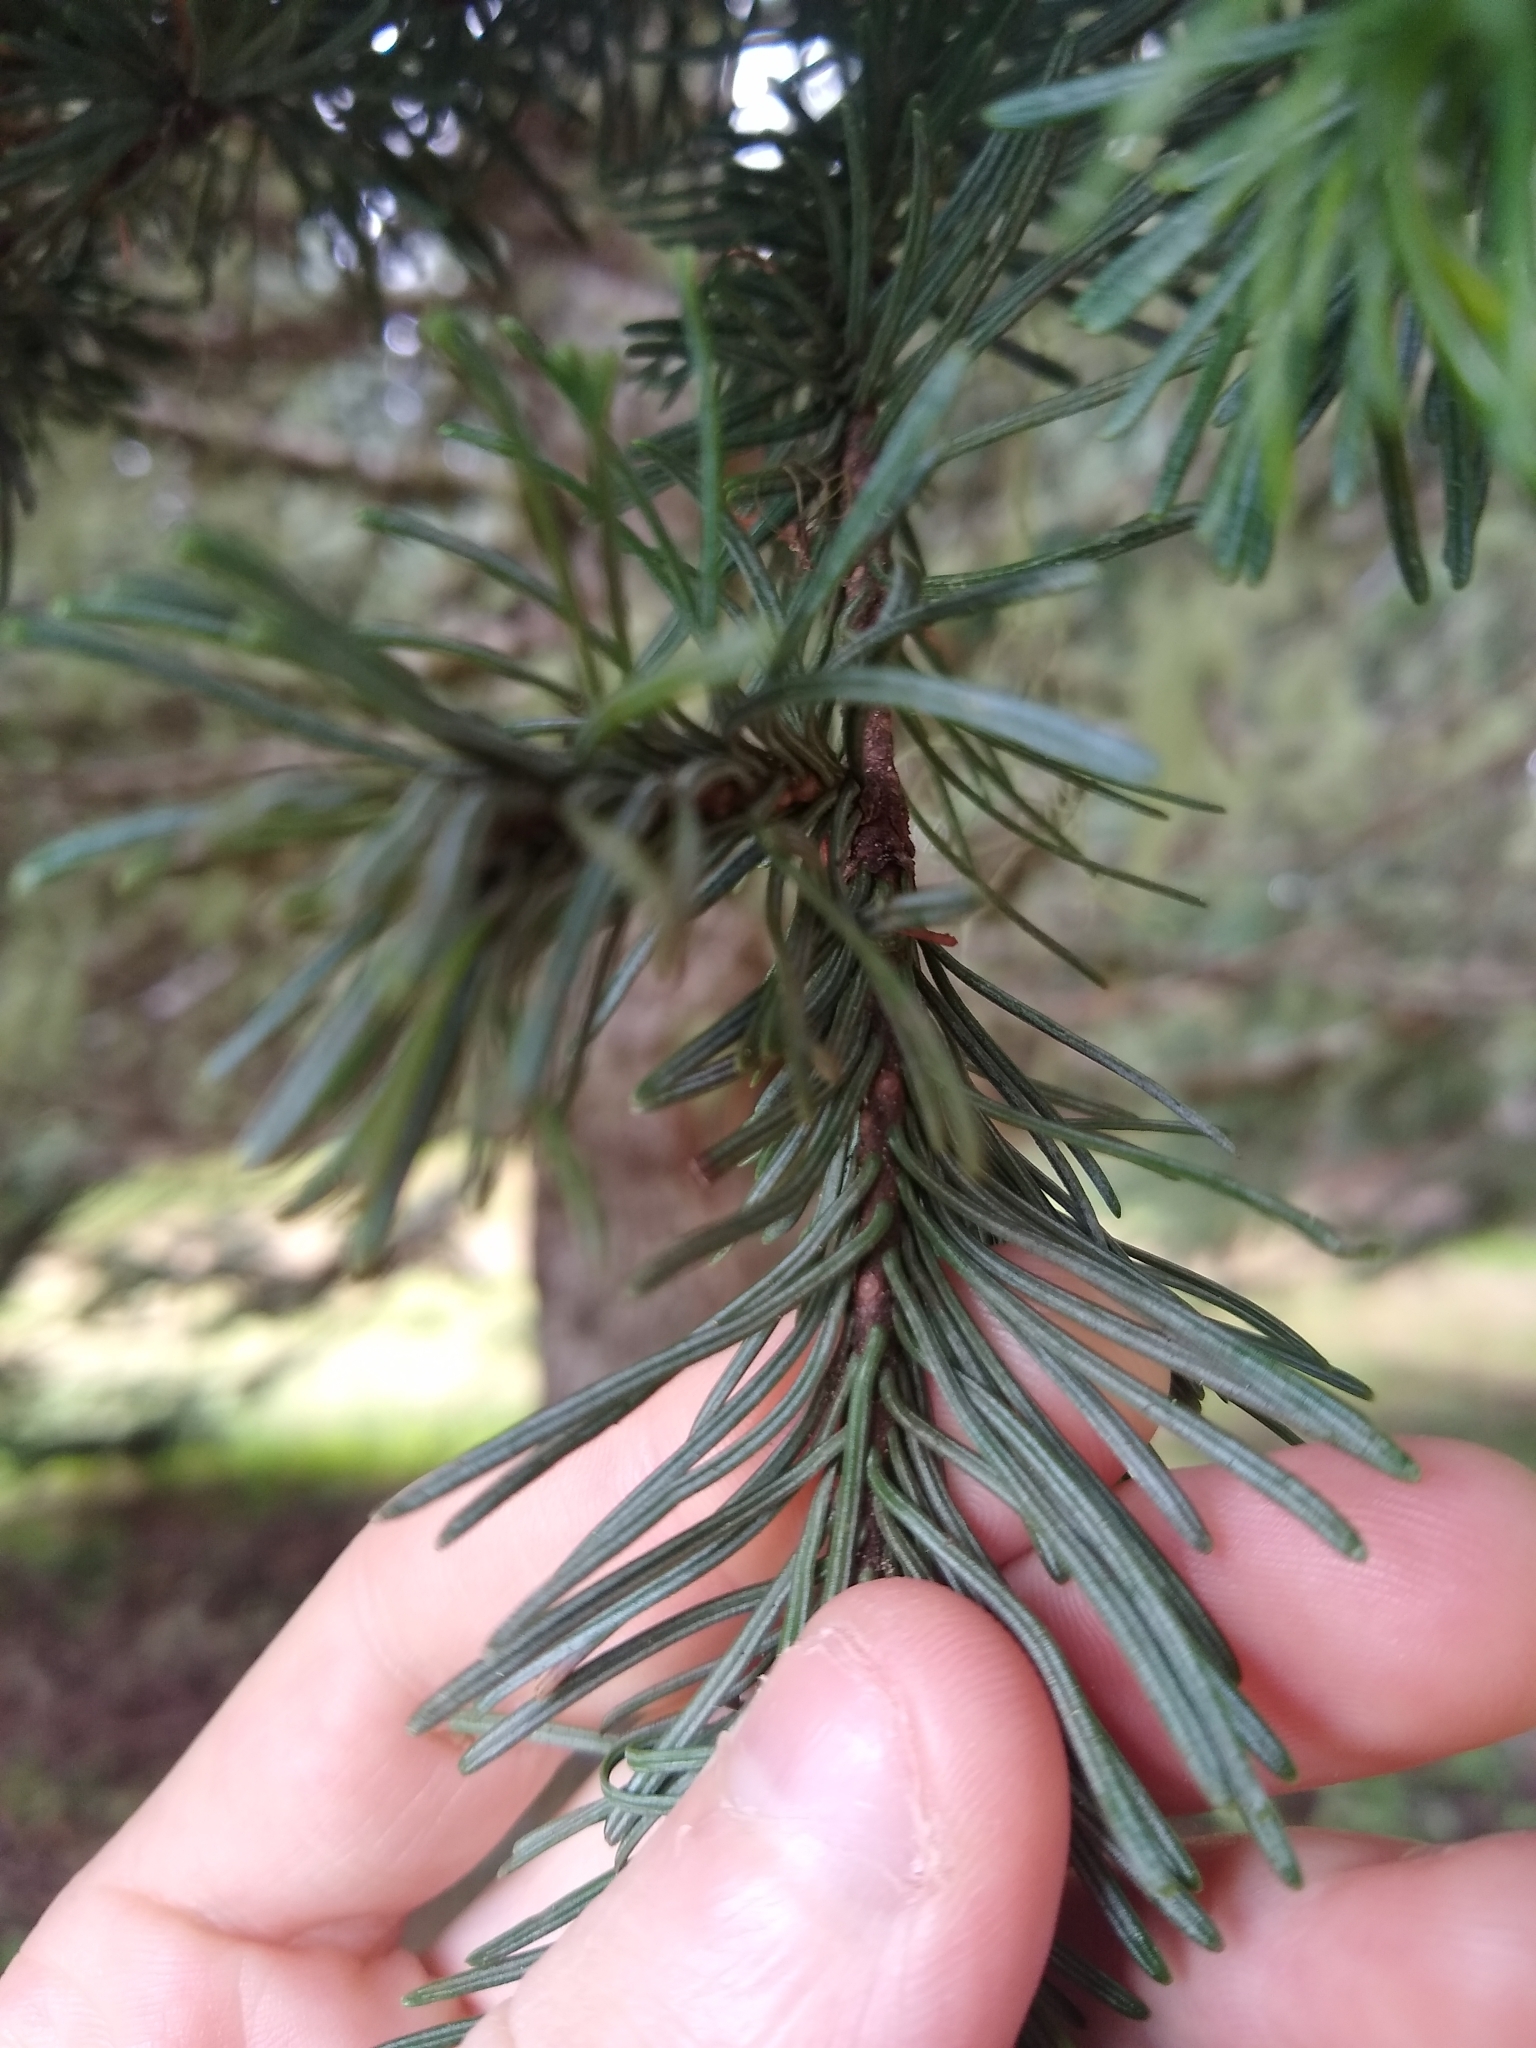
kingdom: Plantae
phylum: Tracheophyta
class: Pinopsida
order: Pinales
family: Pinaceae
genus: Abies
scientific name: Abies procera
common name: Noble fir
